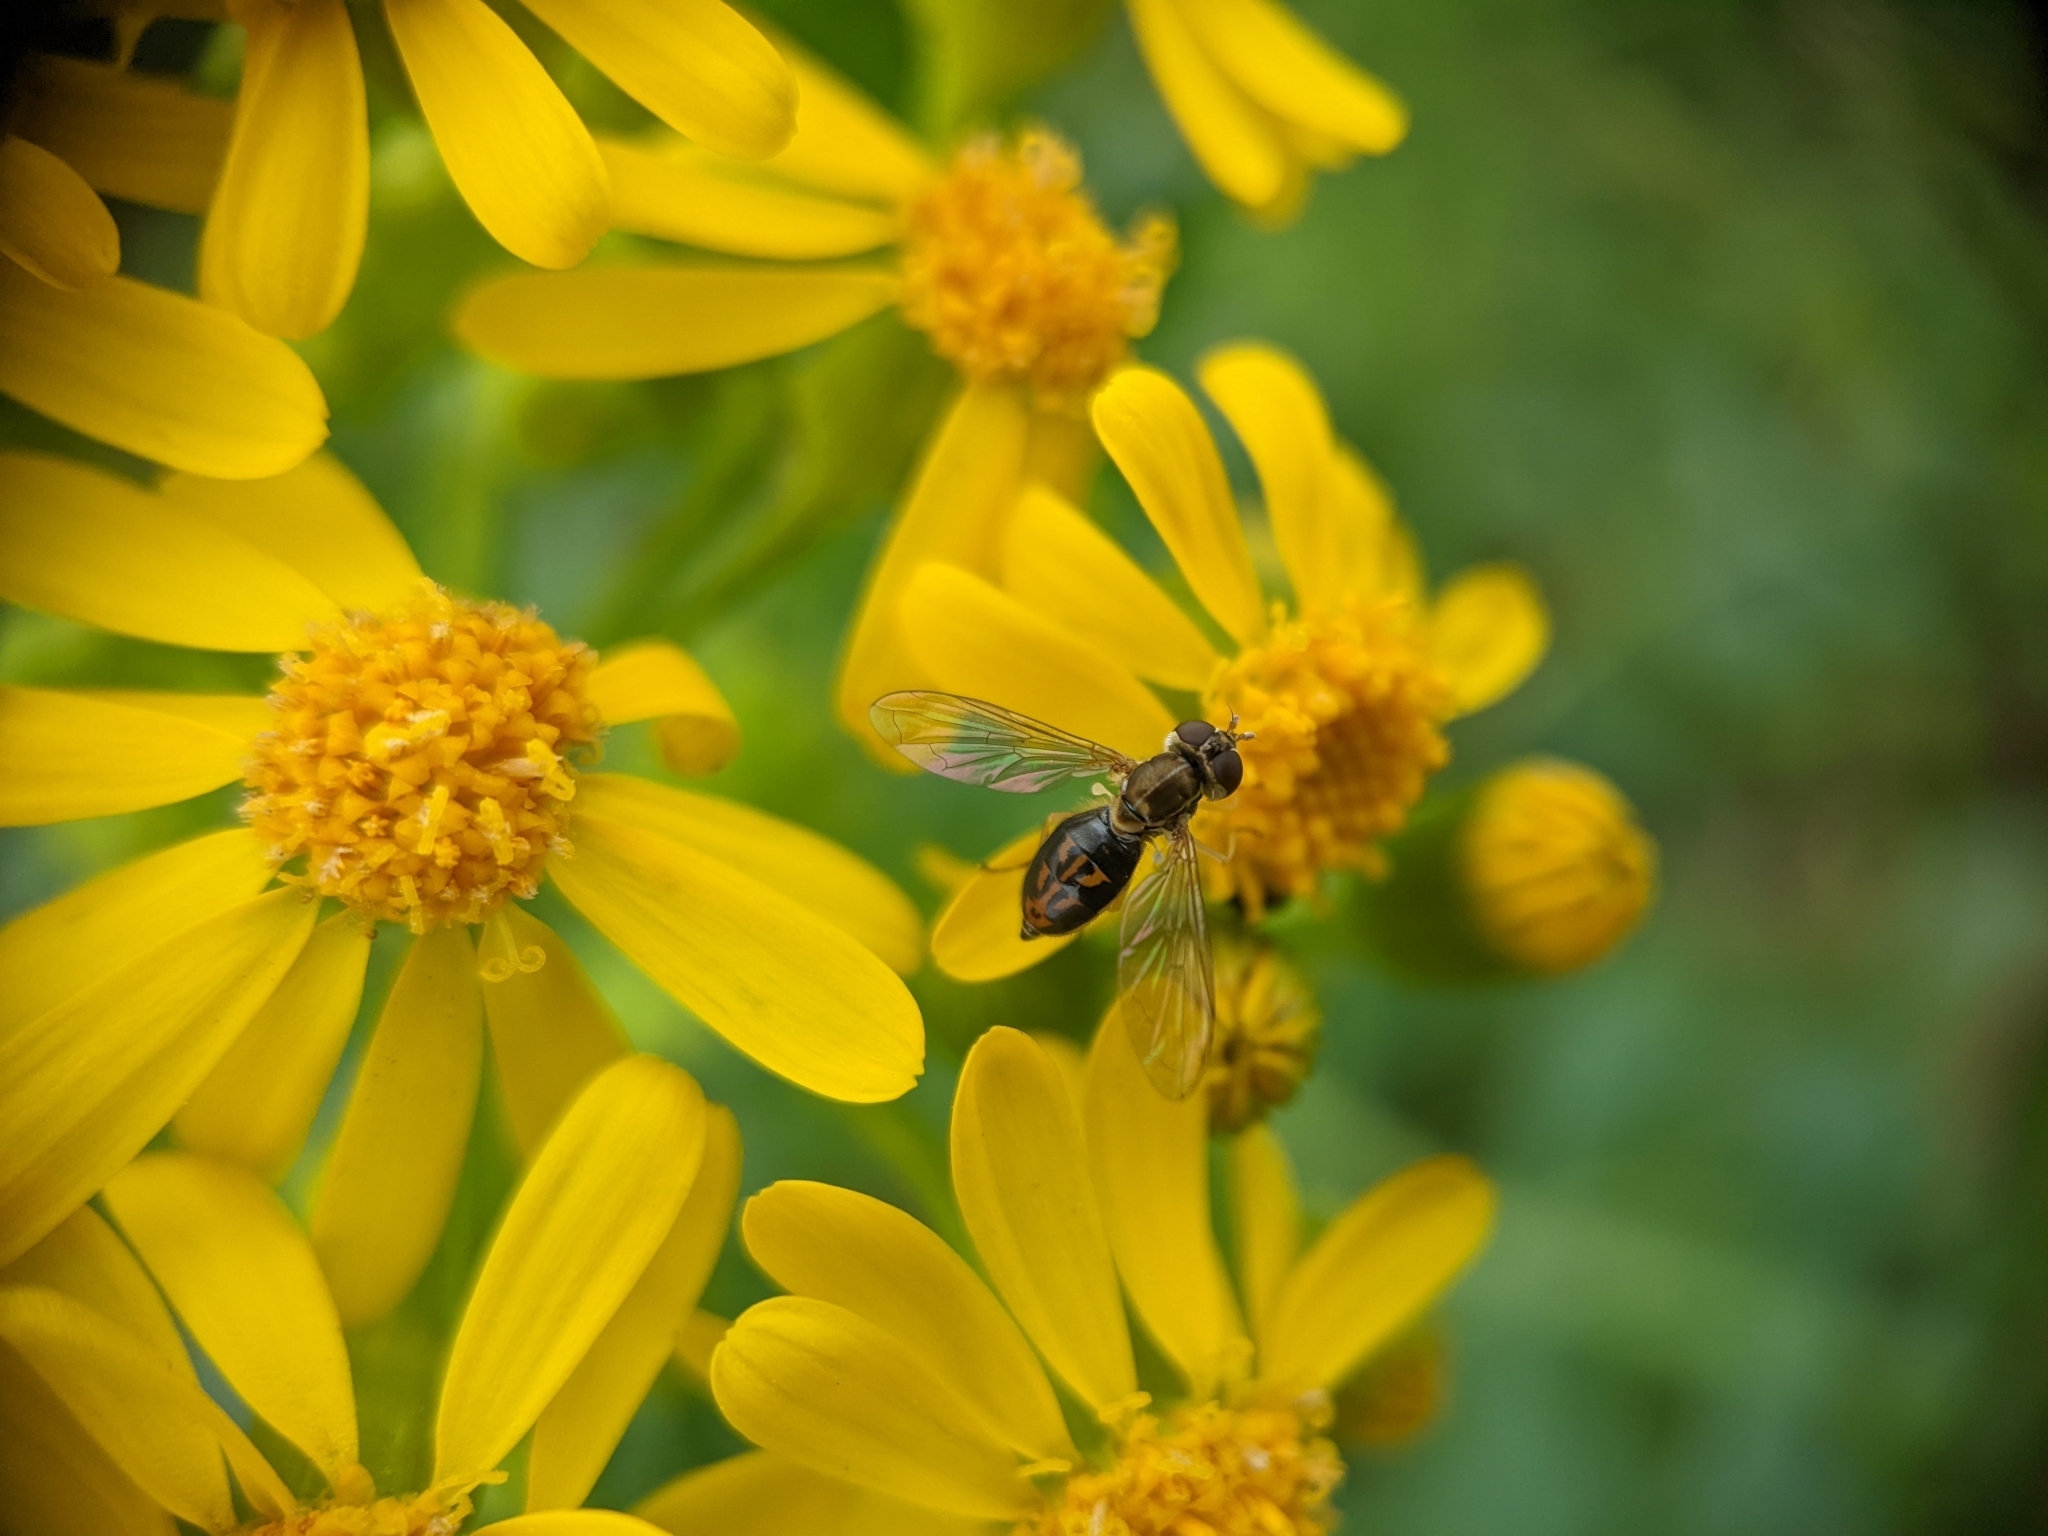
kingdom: Animalia
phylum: Arthropoda
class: Insecta
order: Diptera
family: Syrphidae
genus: Toxomerus
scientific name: Toxomerus marginatus
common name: Syrphid fly
